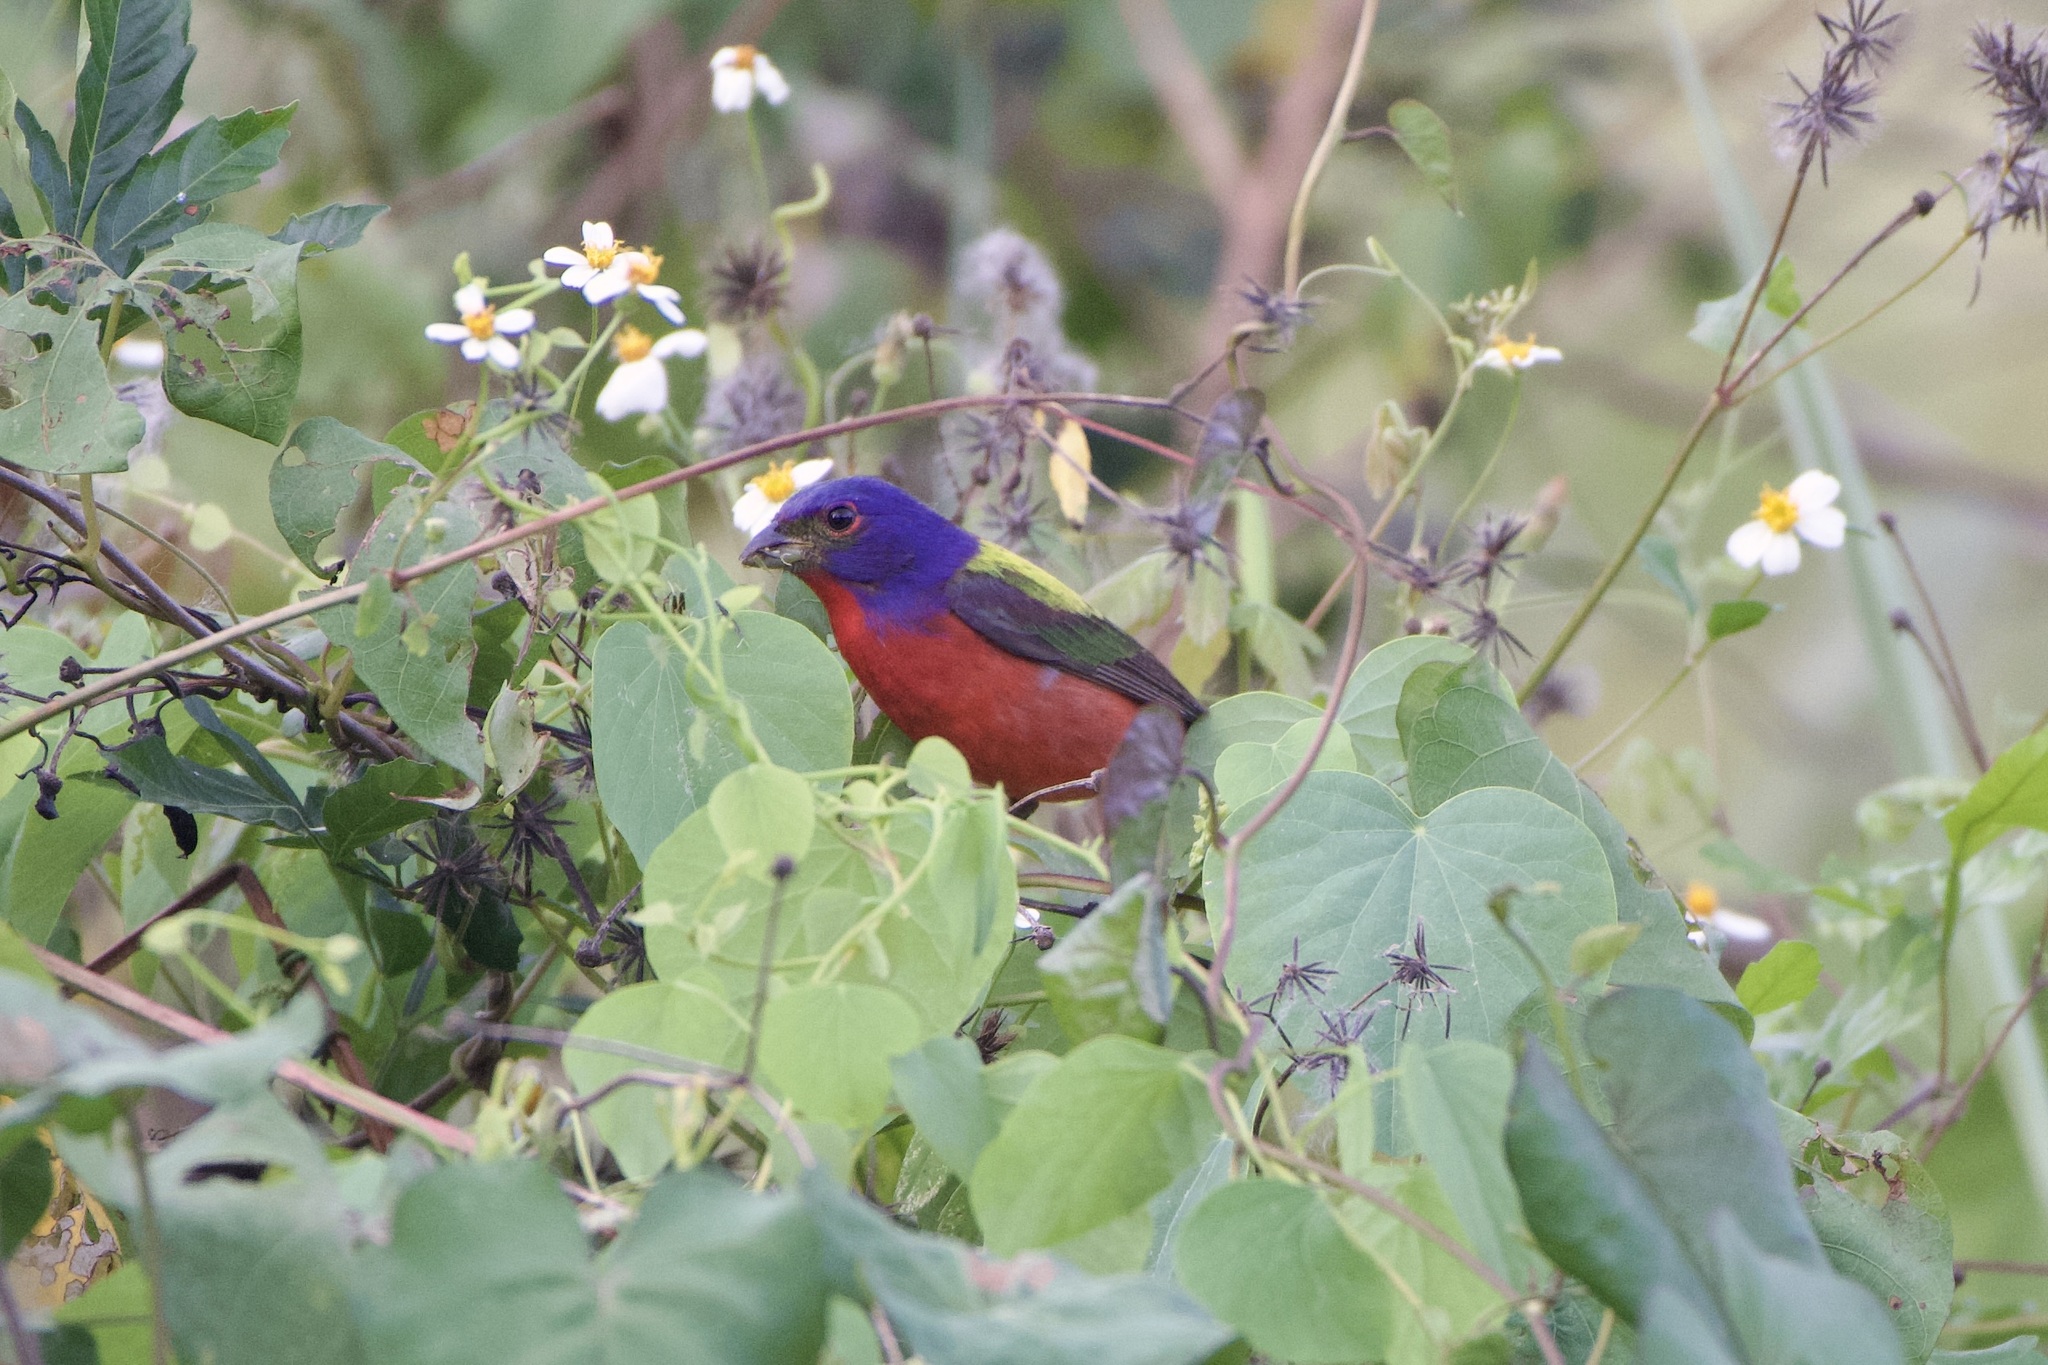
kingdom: Animalia
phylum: Chordata
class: Aves
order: Passeriformes
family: Cardinalidae
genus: Passerina
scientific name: Passerina ciris
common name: Painted bunting
